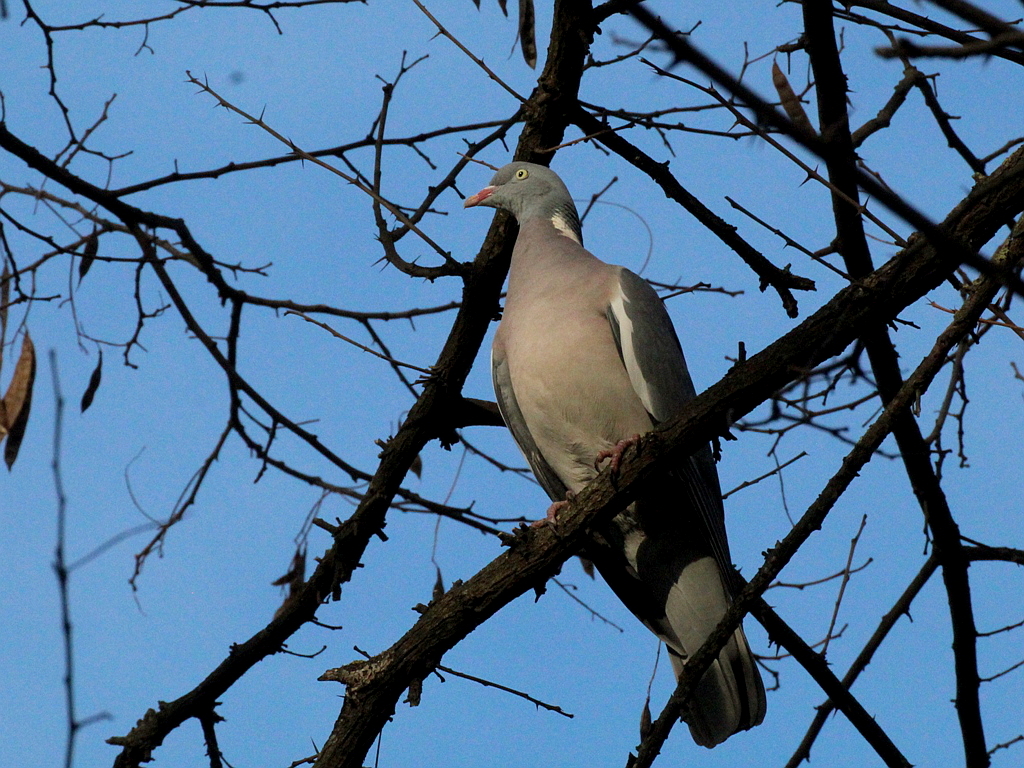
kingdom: Animalia
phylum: Chordata
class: Aves
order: Columbiformes
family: Columbidae
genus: Columba
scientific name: Columba palumbus
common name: Common wood pigeon
